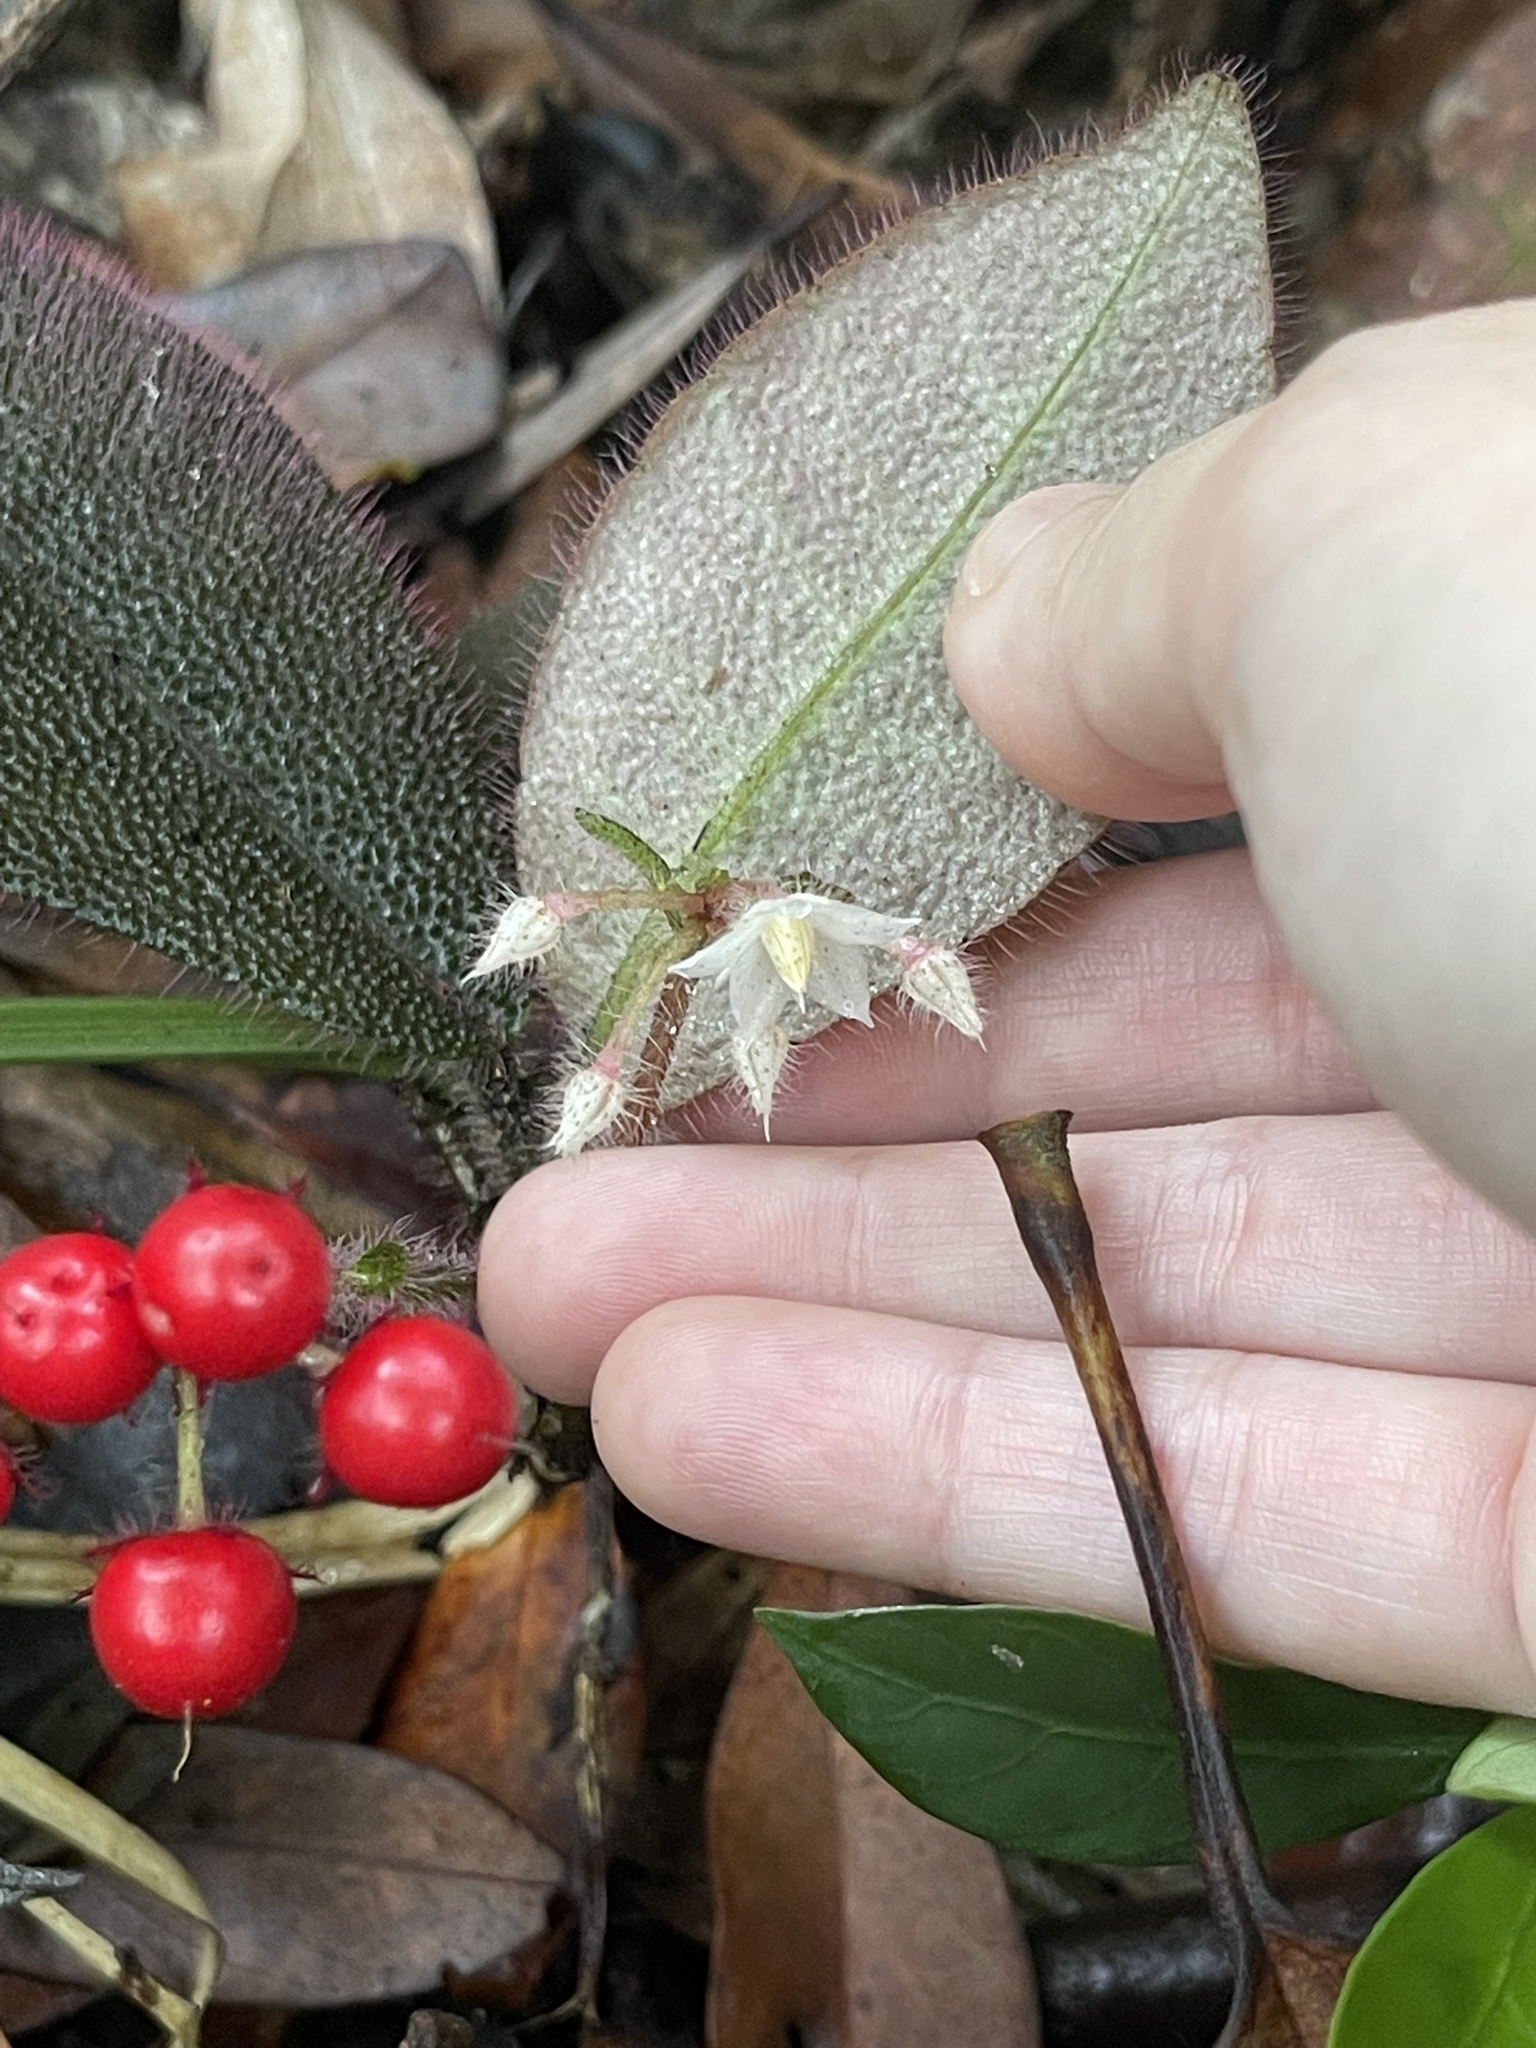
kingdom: Plantae
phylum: Tracheophyta
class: Magnoliopsida
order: Ericales
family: Primulaceae
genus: Ardisia
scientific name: Ardisia mamillata
